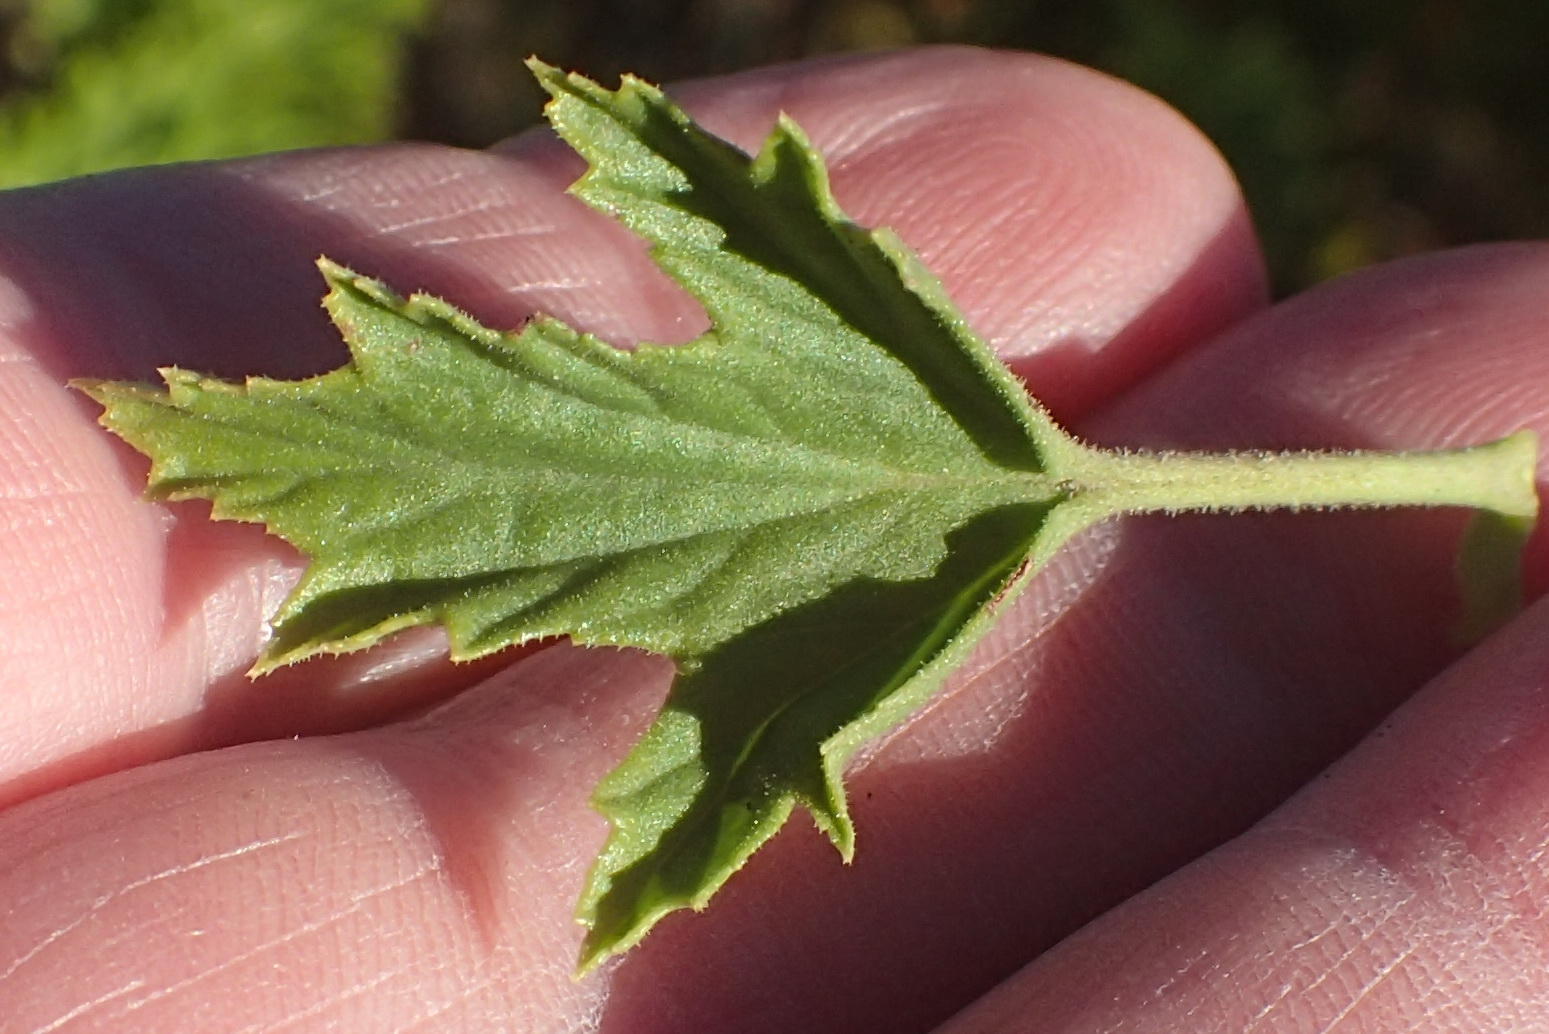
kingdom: Plantae
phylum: Tracheophyta
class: Magnoliopsida
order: Geraniales
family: Geraniaceae
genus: Pelargonium
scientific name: Pelargonium ribifolium
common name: Currant-leaf pelargonium
